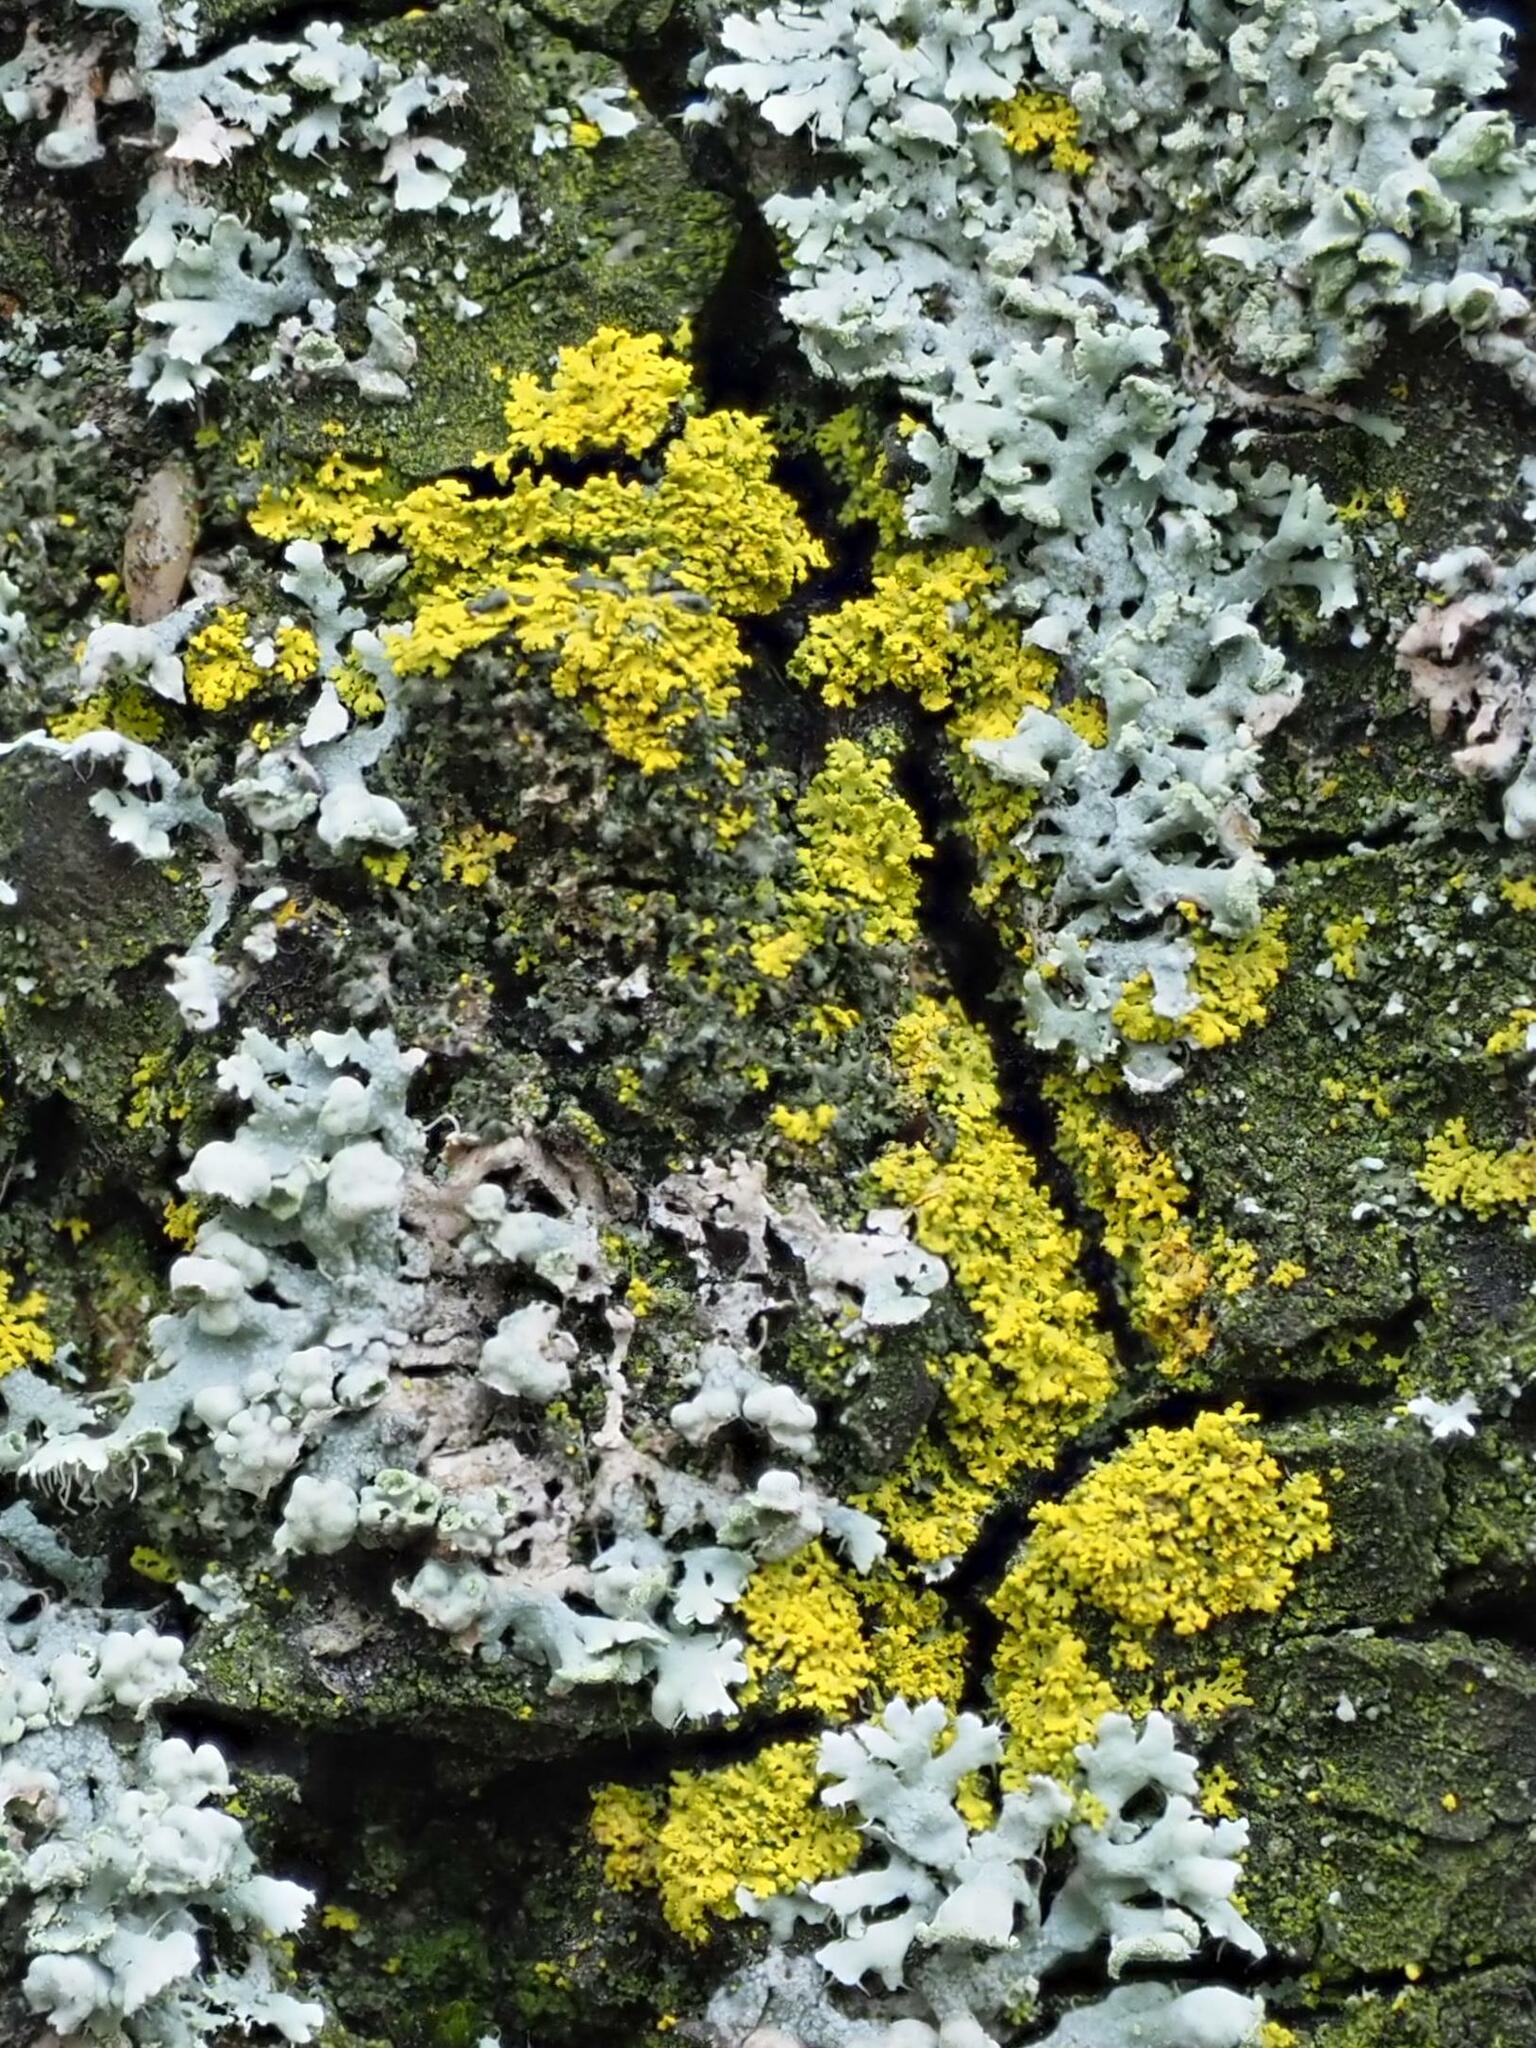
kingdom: Fungi
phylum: Ascomycota
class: Candelariomycetes
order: Candelariales
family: Candelariaceae
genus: Candelaria
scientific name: Candelaria concolor
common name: Candleflame lichen
